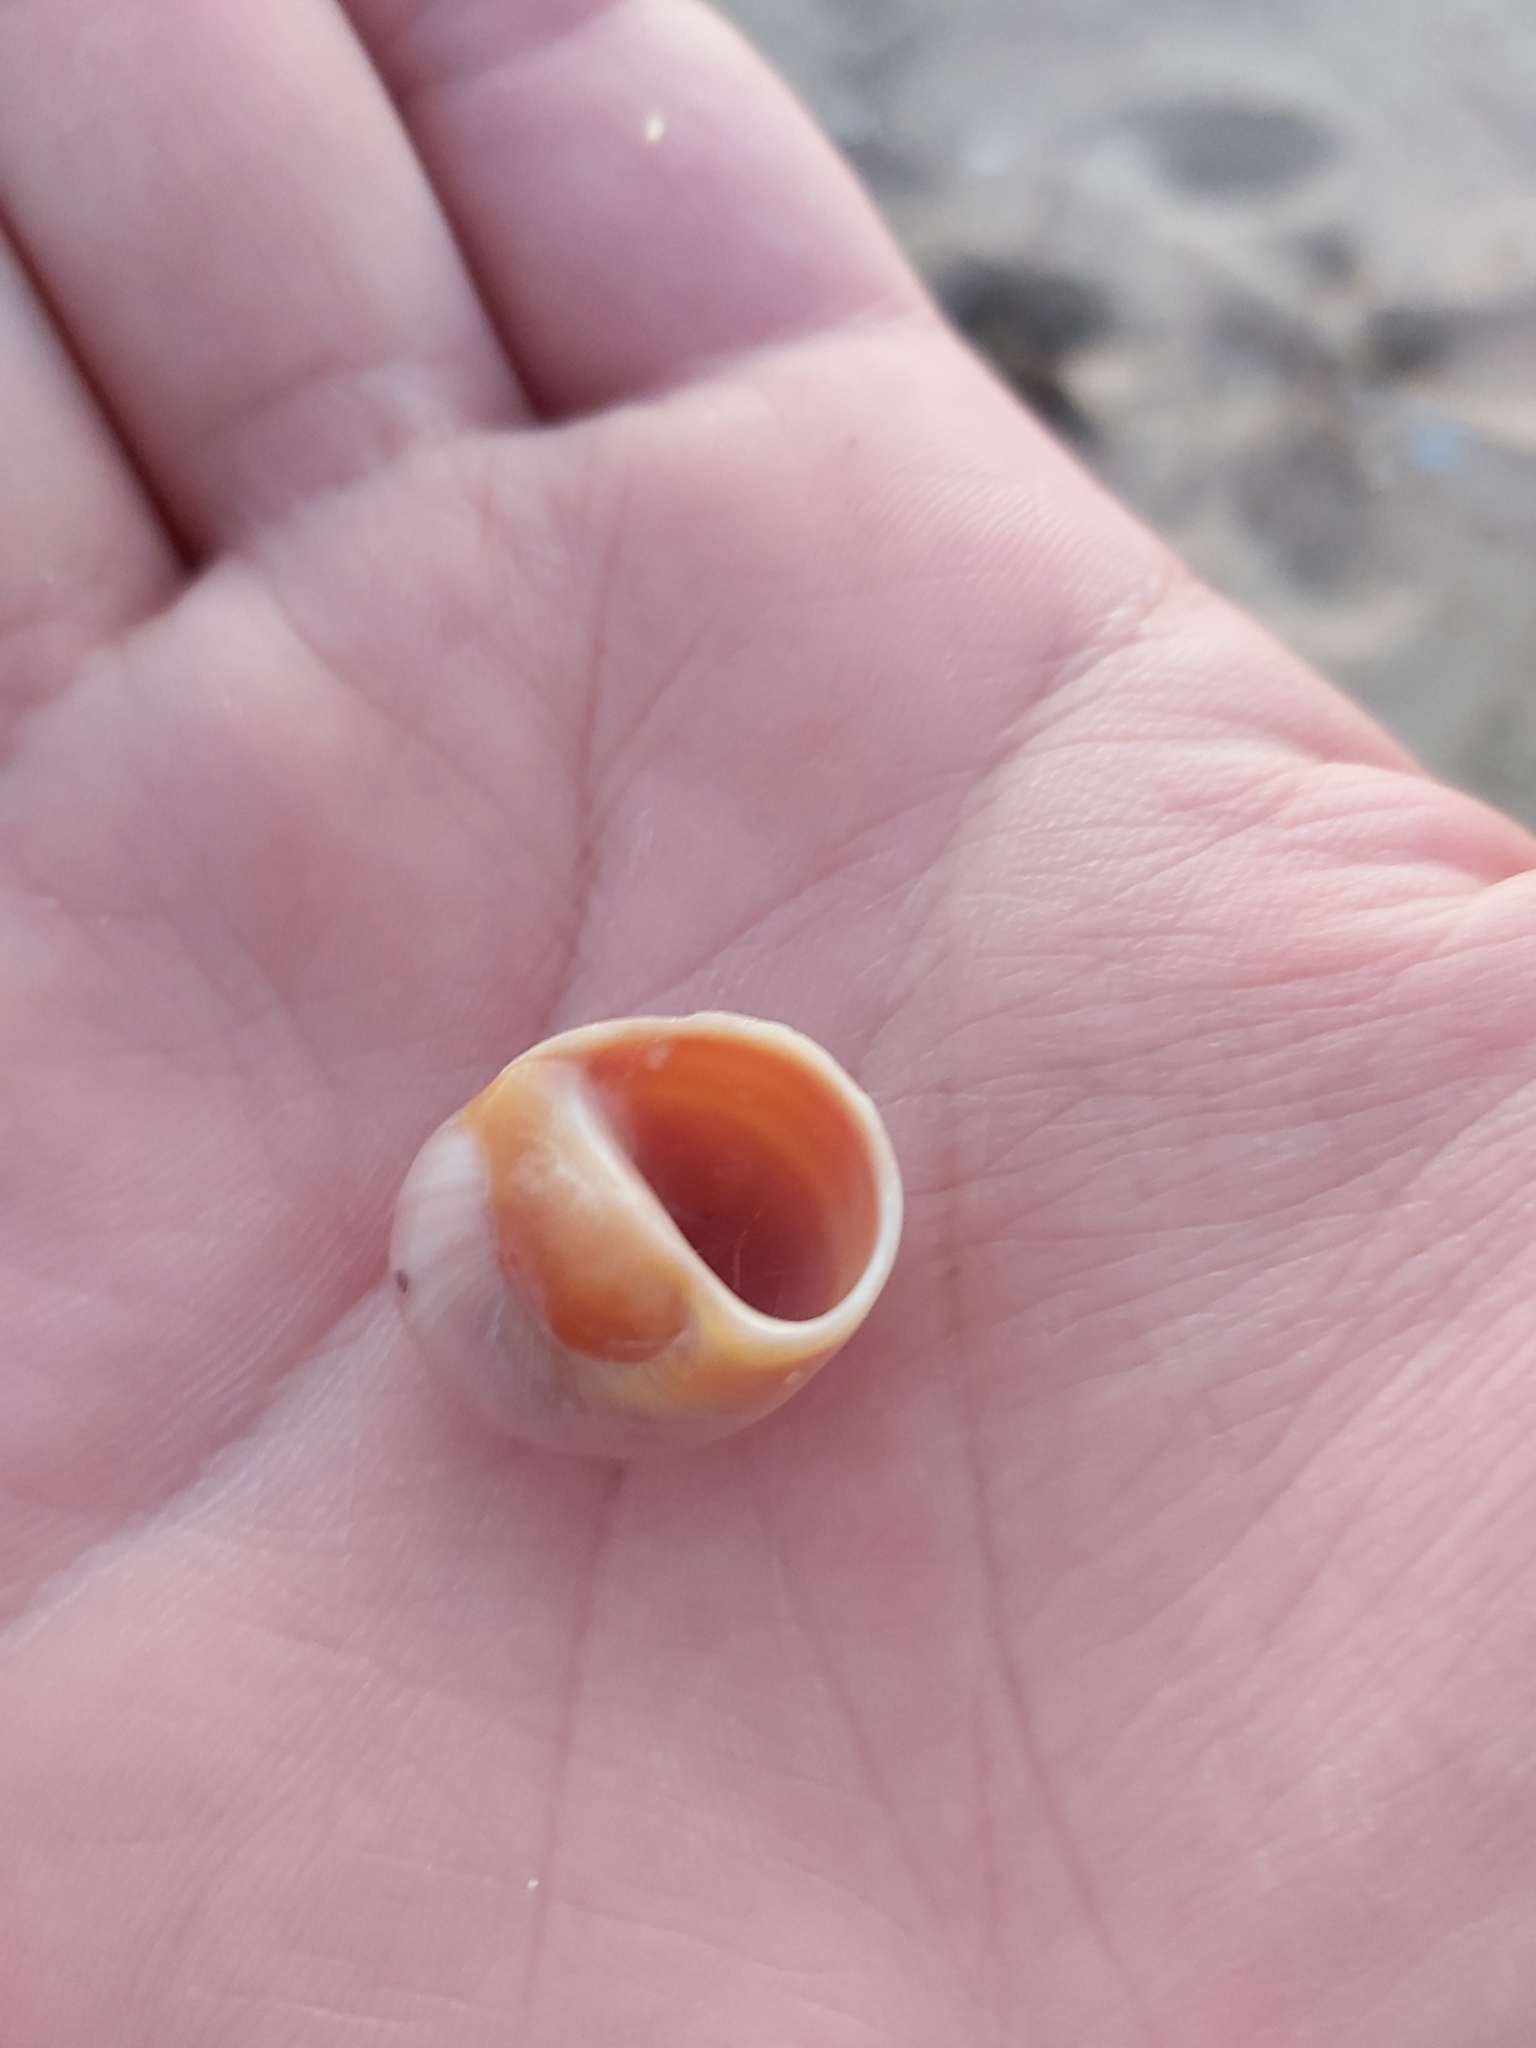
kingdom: Animalia
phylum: Mollusca
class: Gastropoda
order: Littorinimorpha
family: Naticidae
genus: Conuber
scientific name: Conuber melastoma
